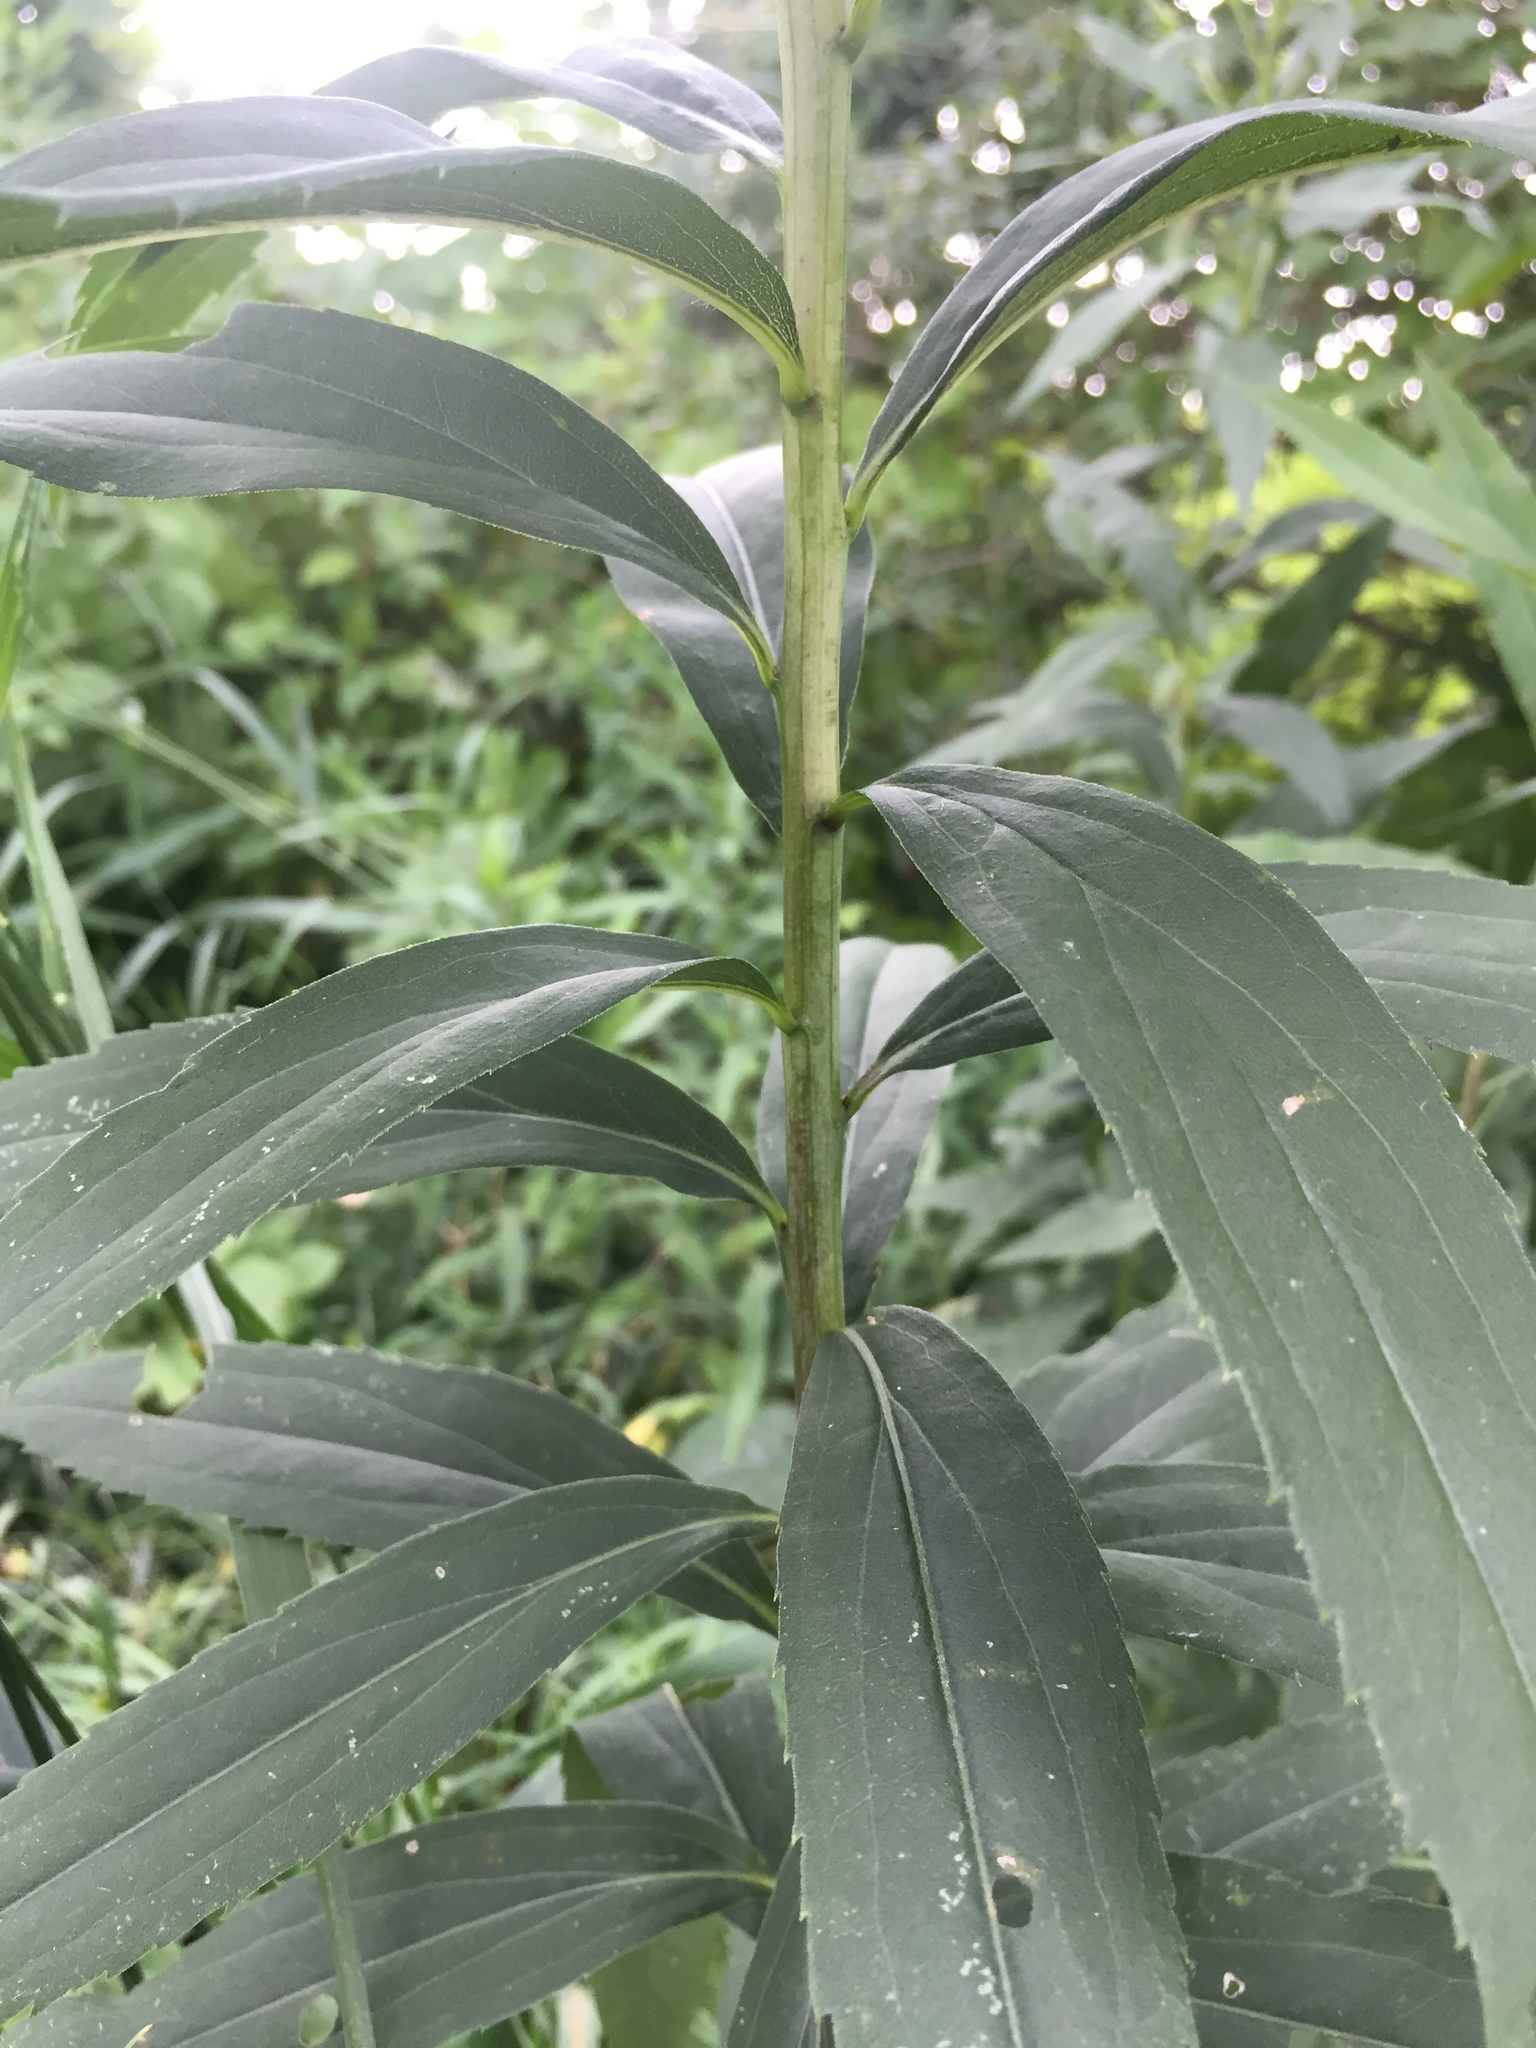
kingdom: Plantae
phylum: Tracheophyta
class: Magnoliopsida
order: Asterales
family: Asteraceae
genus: Solidago
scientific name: Solidago canadensis
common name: Canada goldenrod
